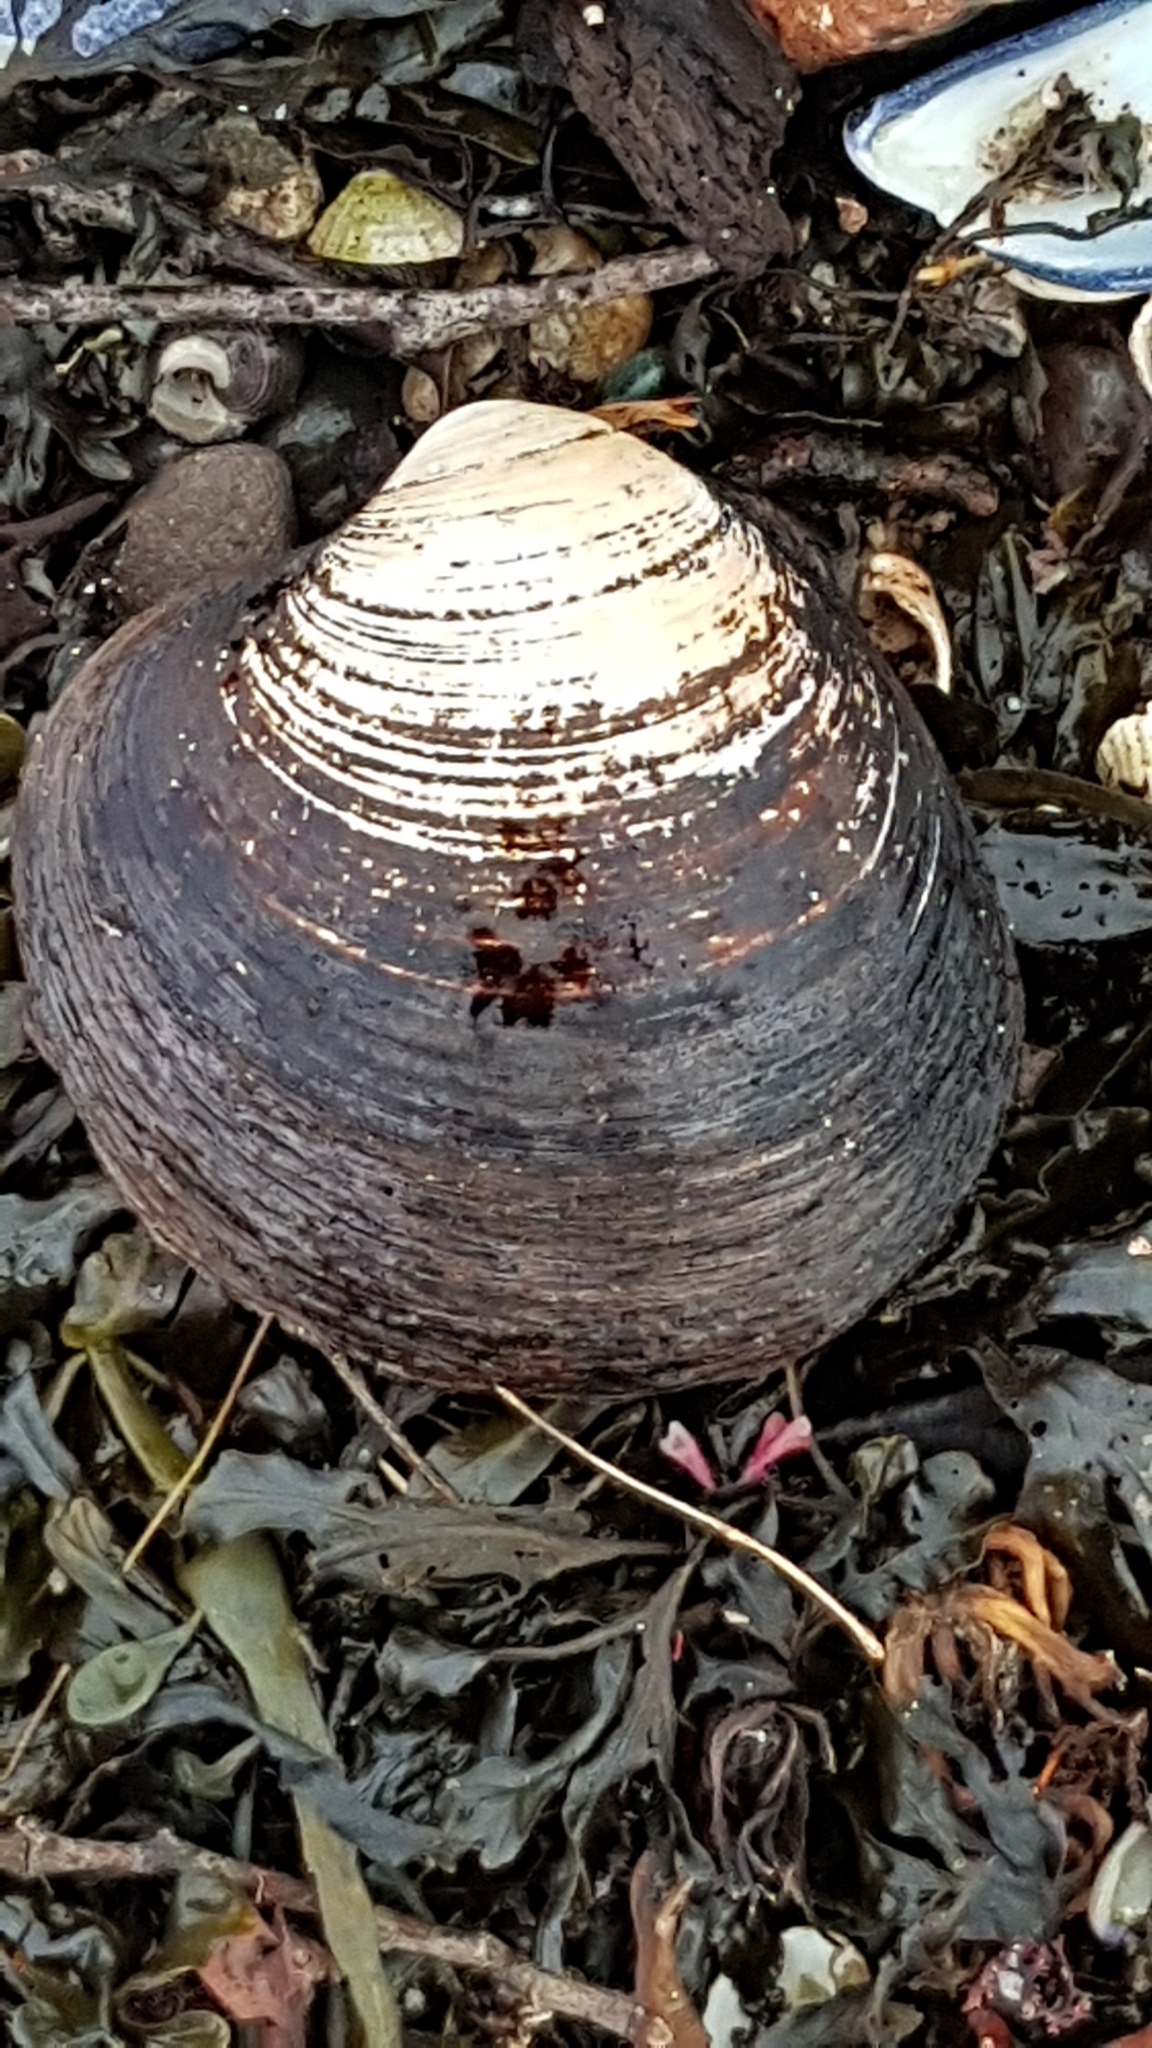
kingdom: Animalia
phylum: Mollusca
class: Bivalvia
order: Venerida
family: Arcticidae
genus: Arctica
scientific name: Arctica islandica
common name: Icelandic cyprine
